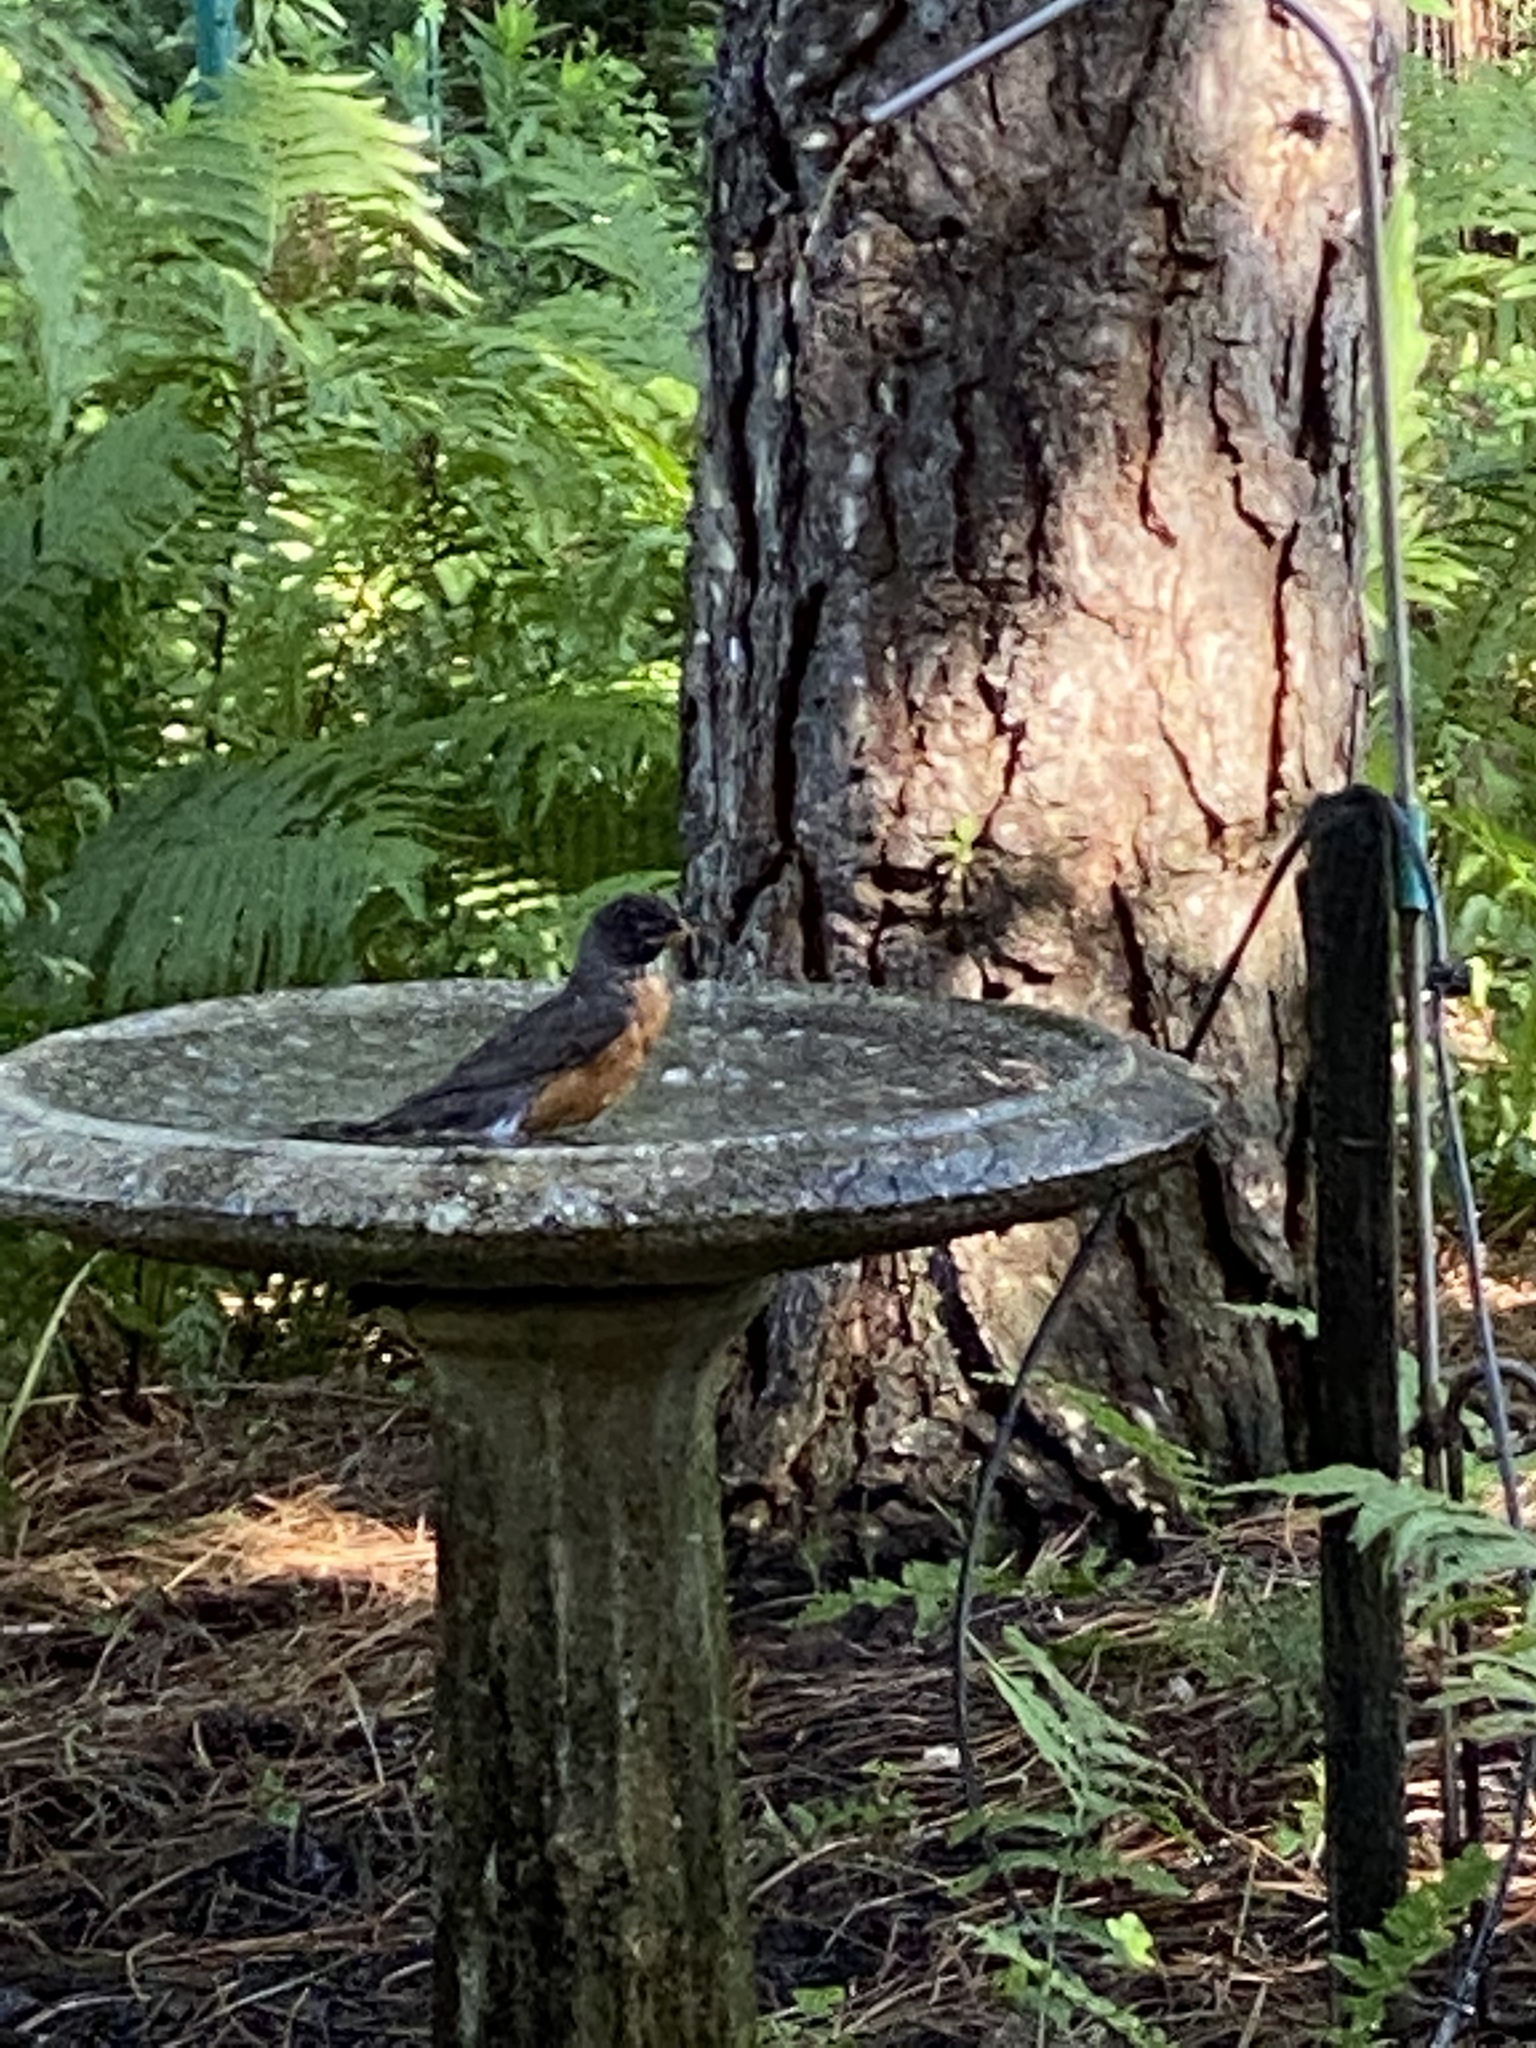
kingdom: Animalia
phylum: Chordata
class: Aves
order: Passeriformes
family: Turdidae
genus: Turdus
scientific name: Turdus migratorius
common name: American robin
